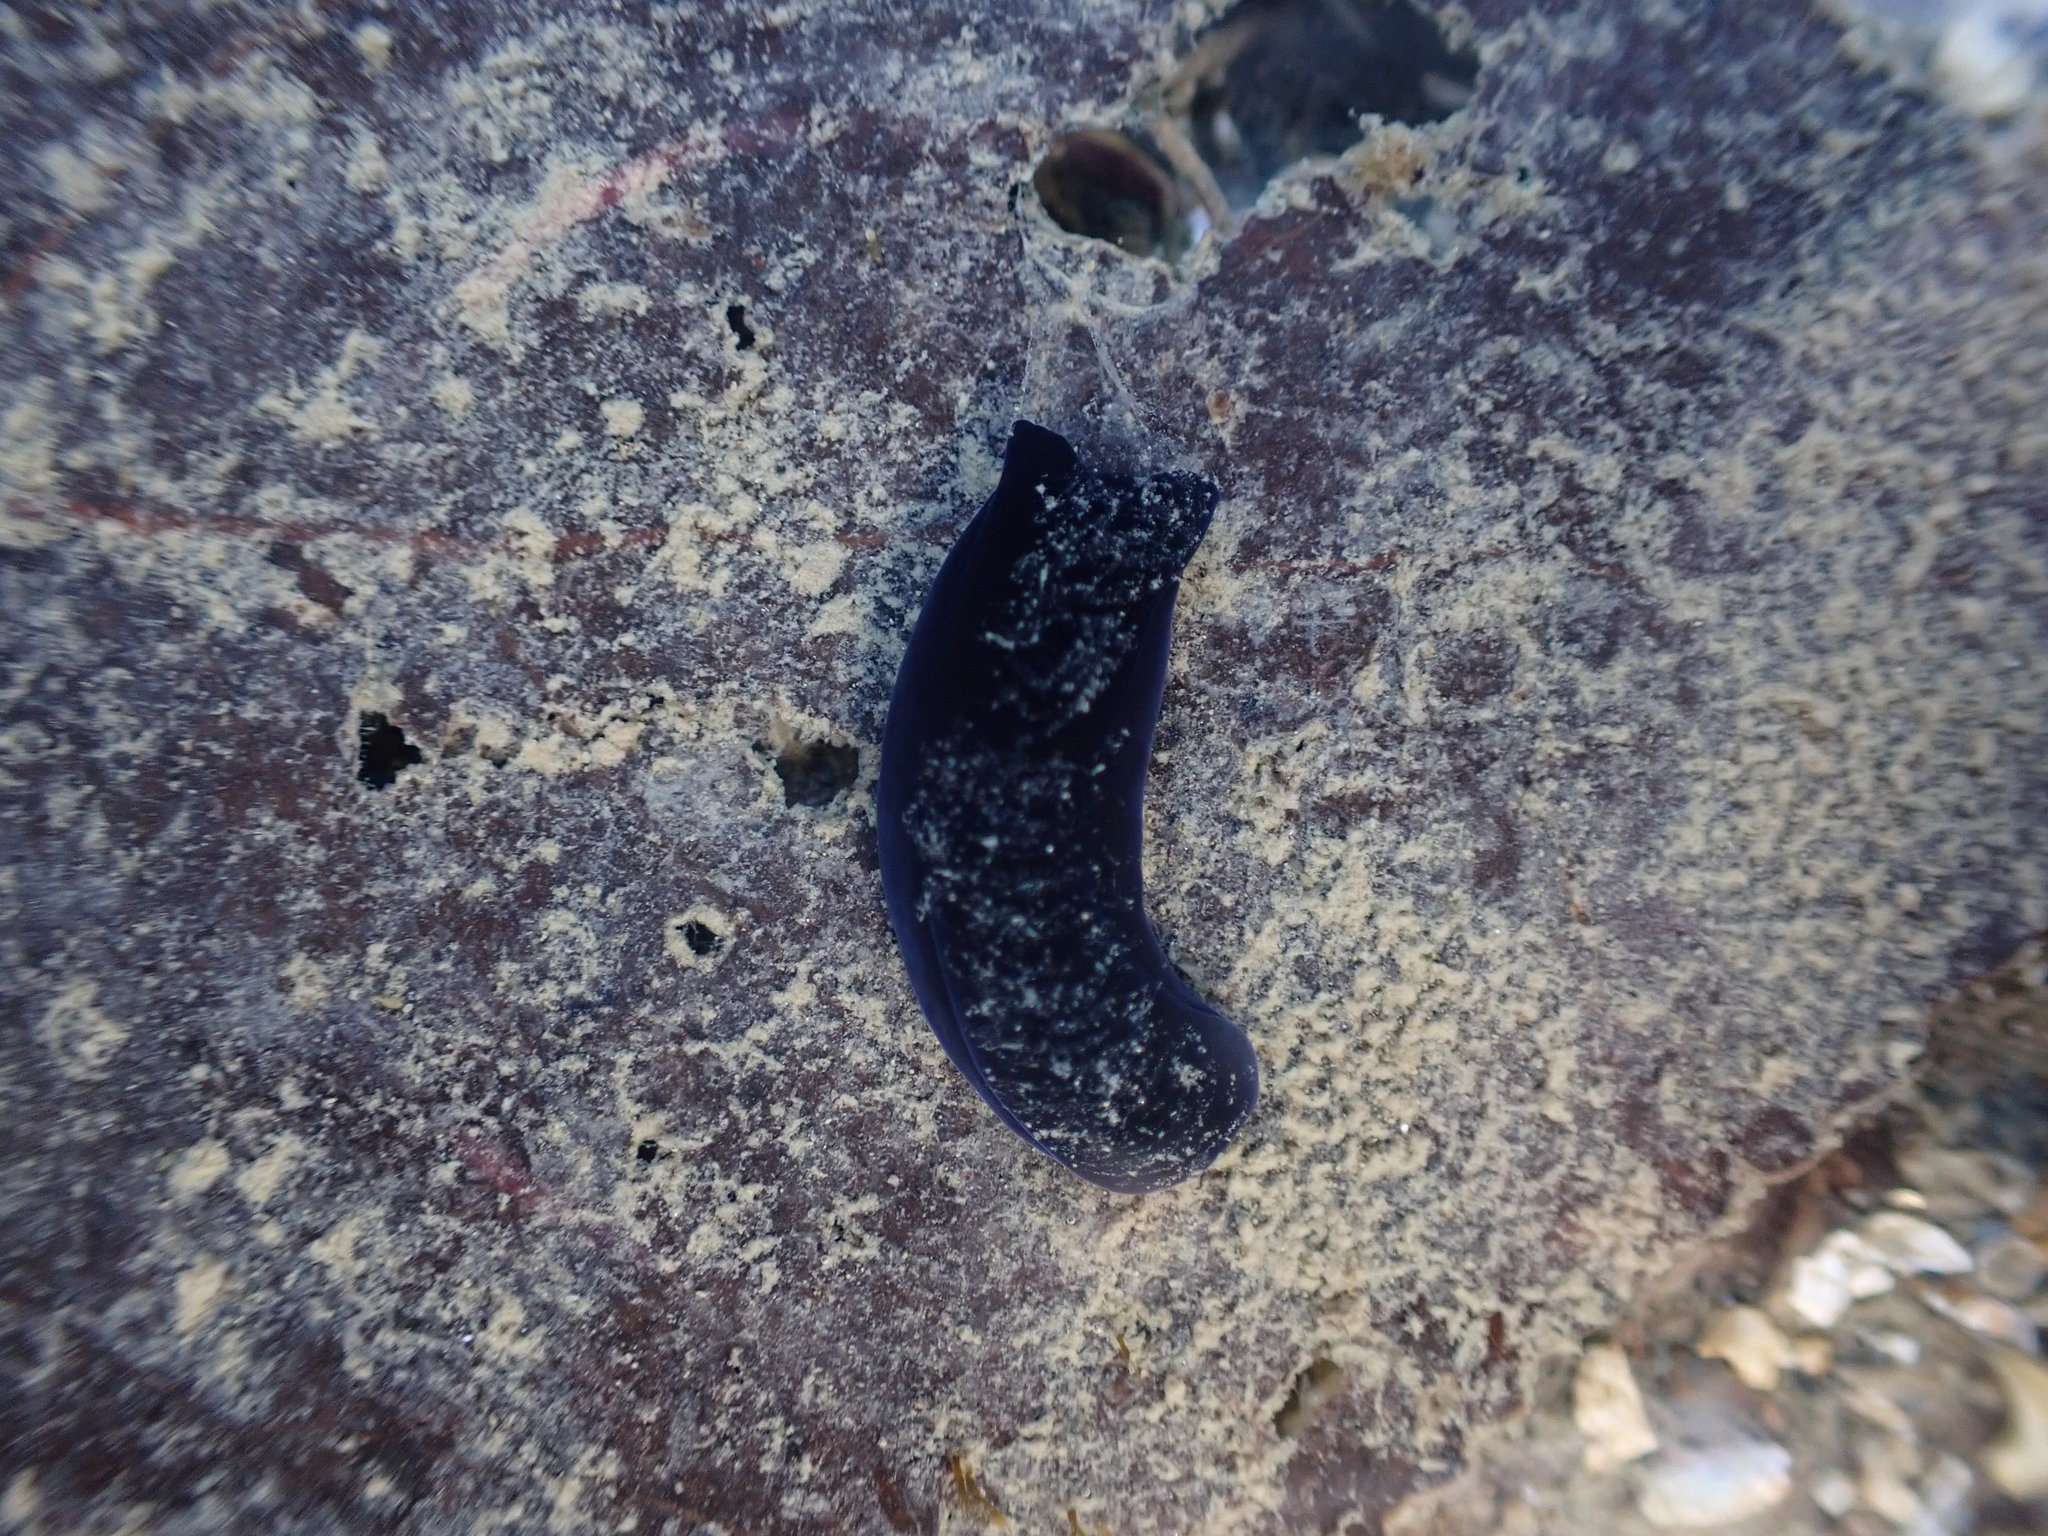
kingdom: Animalia
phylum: Mollusca
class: Gastropoda
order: Cephalaspidea
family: Aglajidae
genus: Melanochlamys
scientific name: Melanochlamys cylindrica
